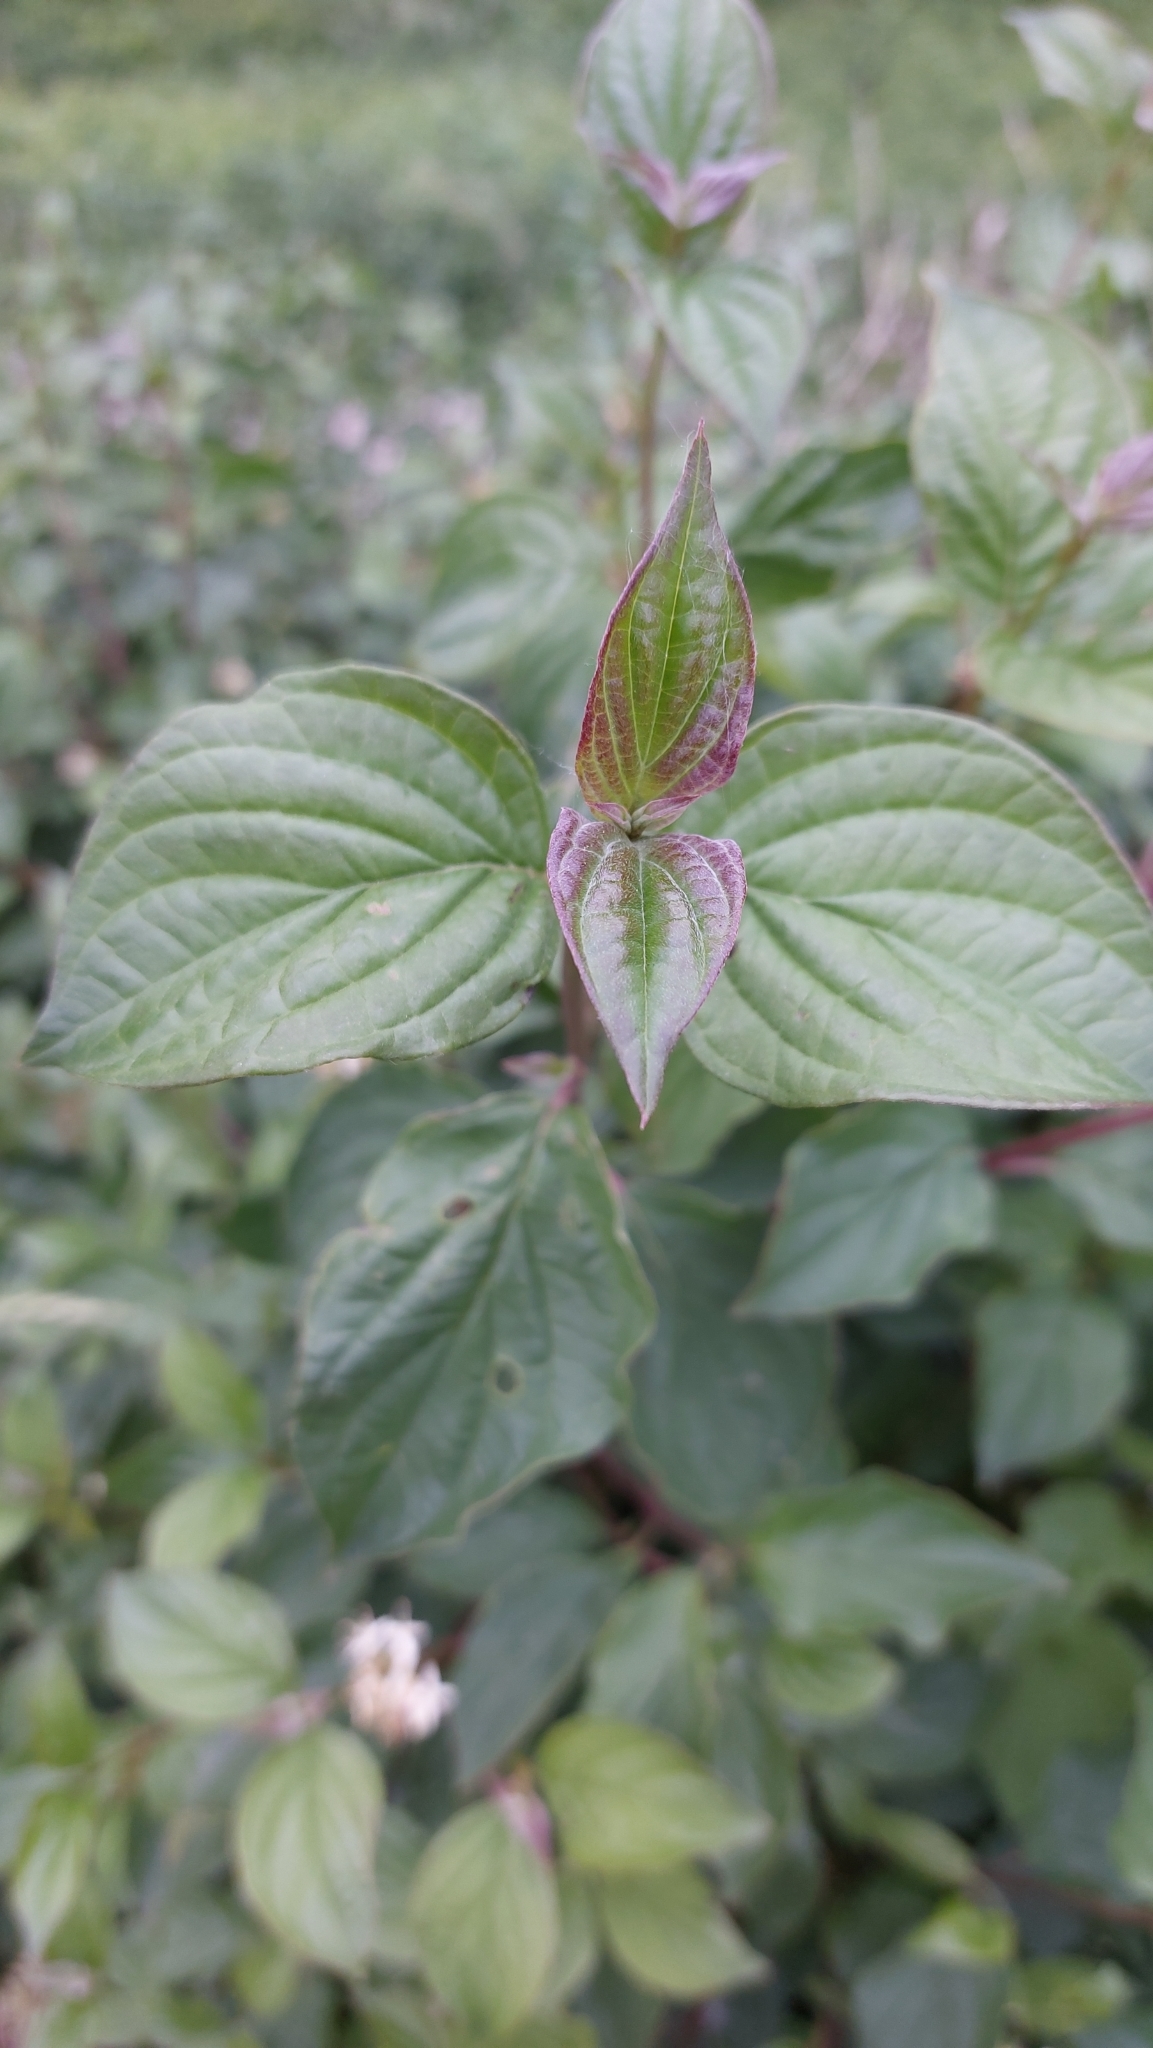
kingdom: Plantae
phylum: Tracheophyta
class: Magnoliopsida
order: Cornales
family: Cornaceae
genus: Cornus
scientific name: Cornus sanguinea
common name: Dogwood
